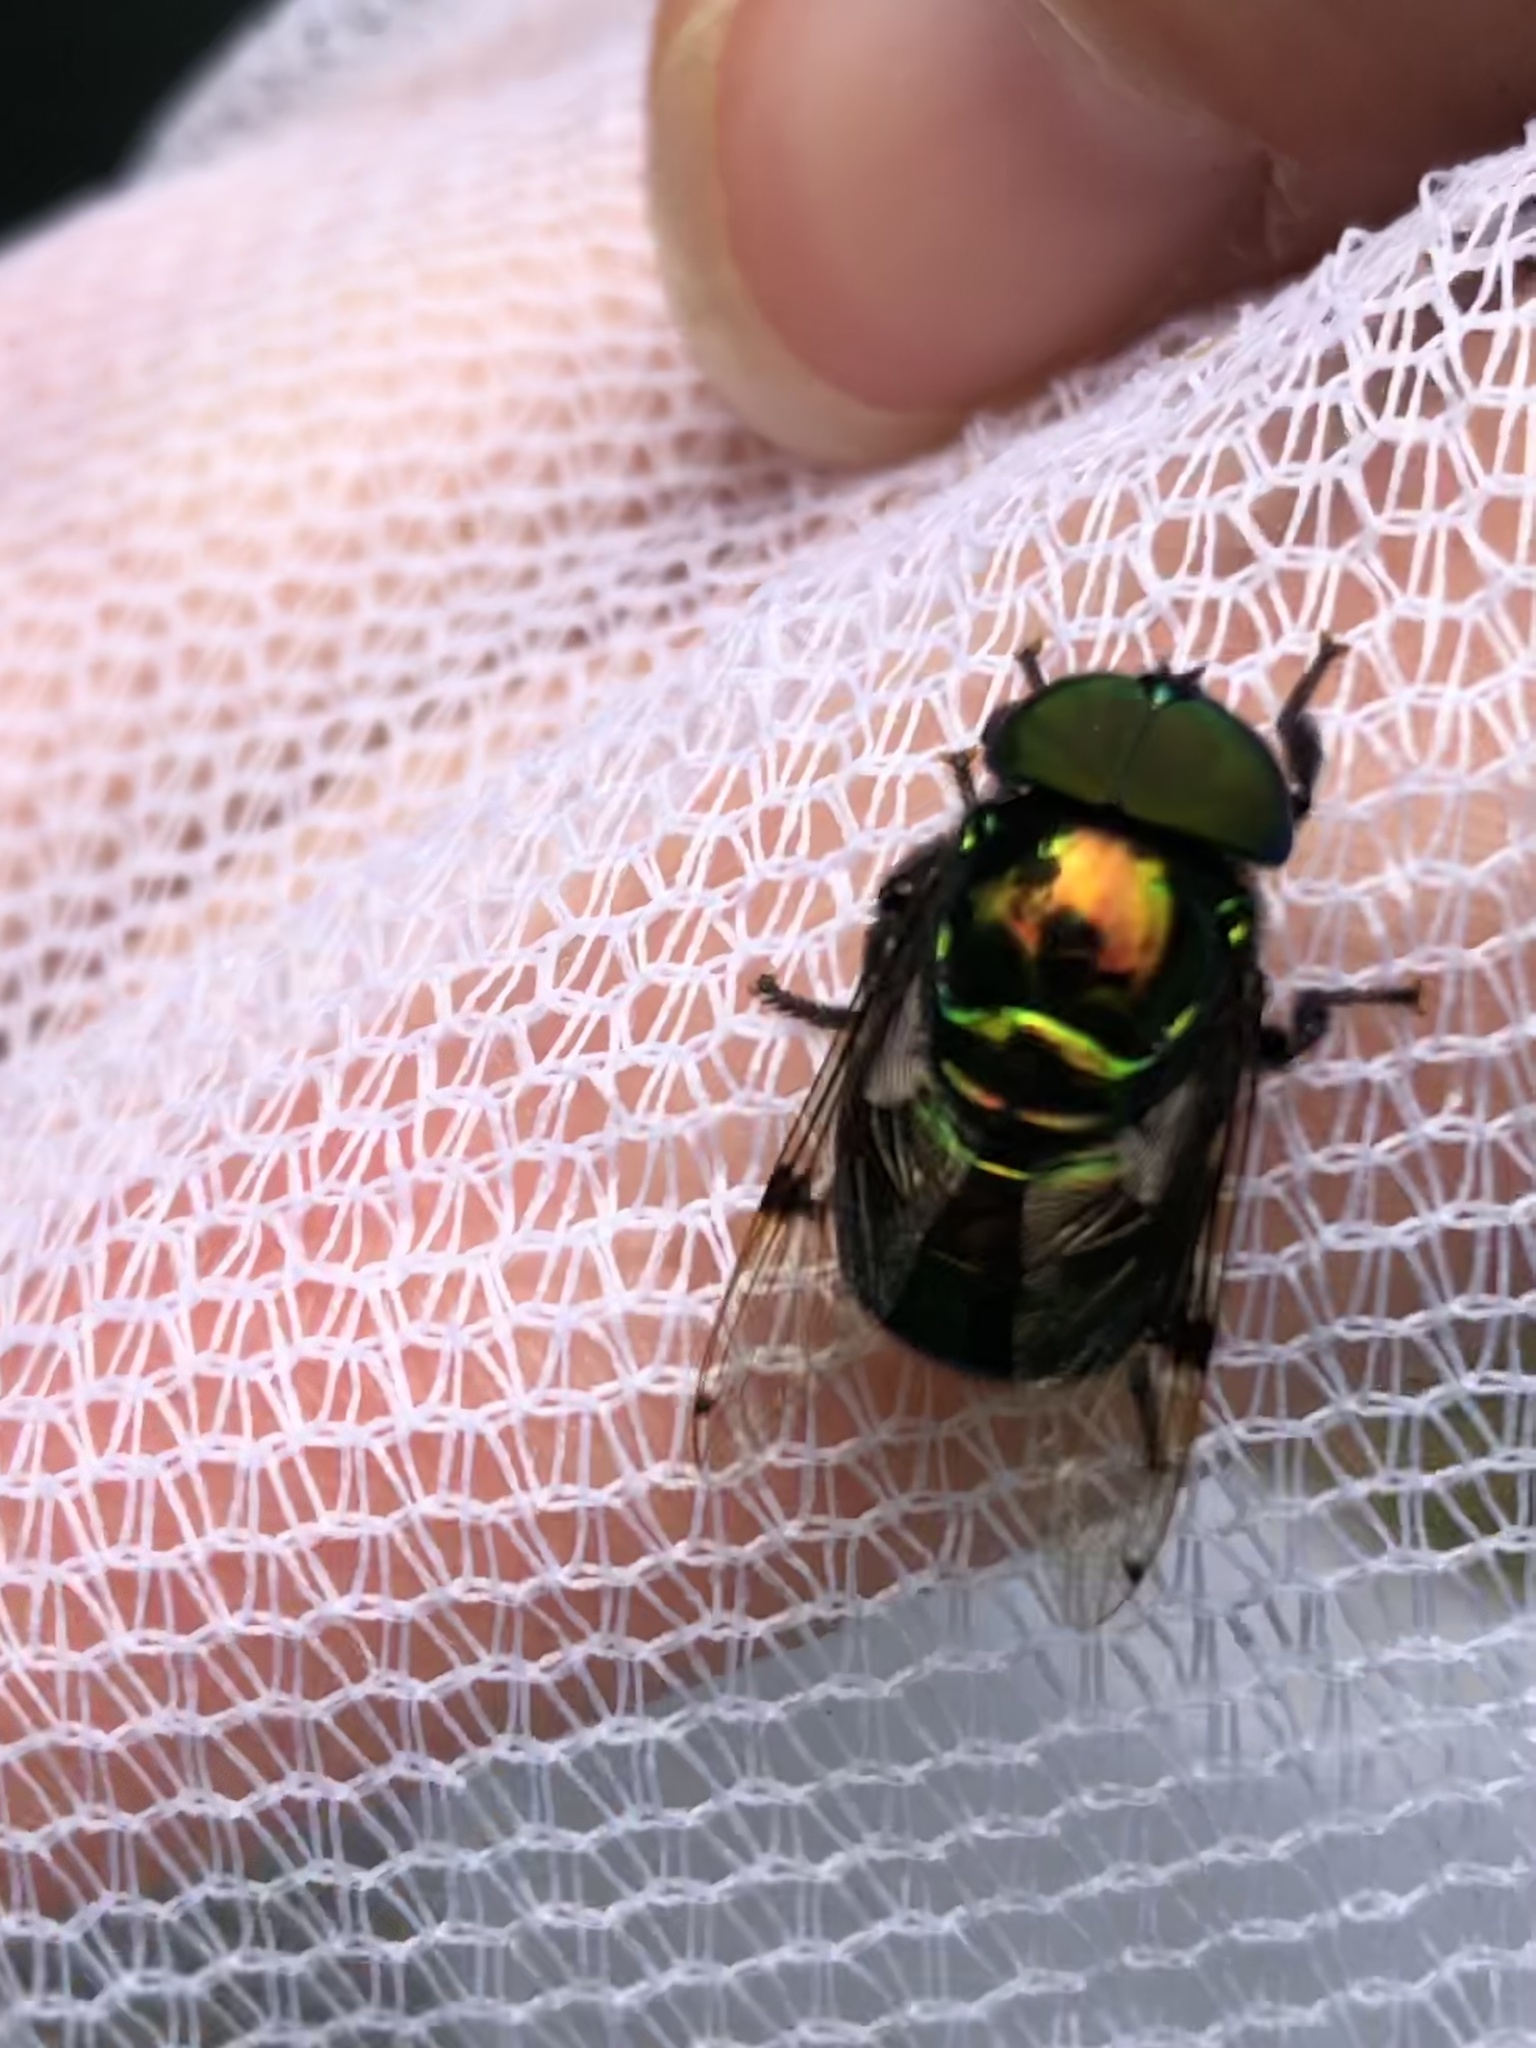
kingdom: Animalia
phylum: Arthropoda
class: Insecta
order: Diptera
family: Syrphidae
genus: Ornidia
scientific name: Ornidia major
